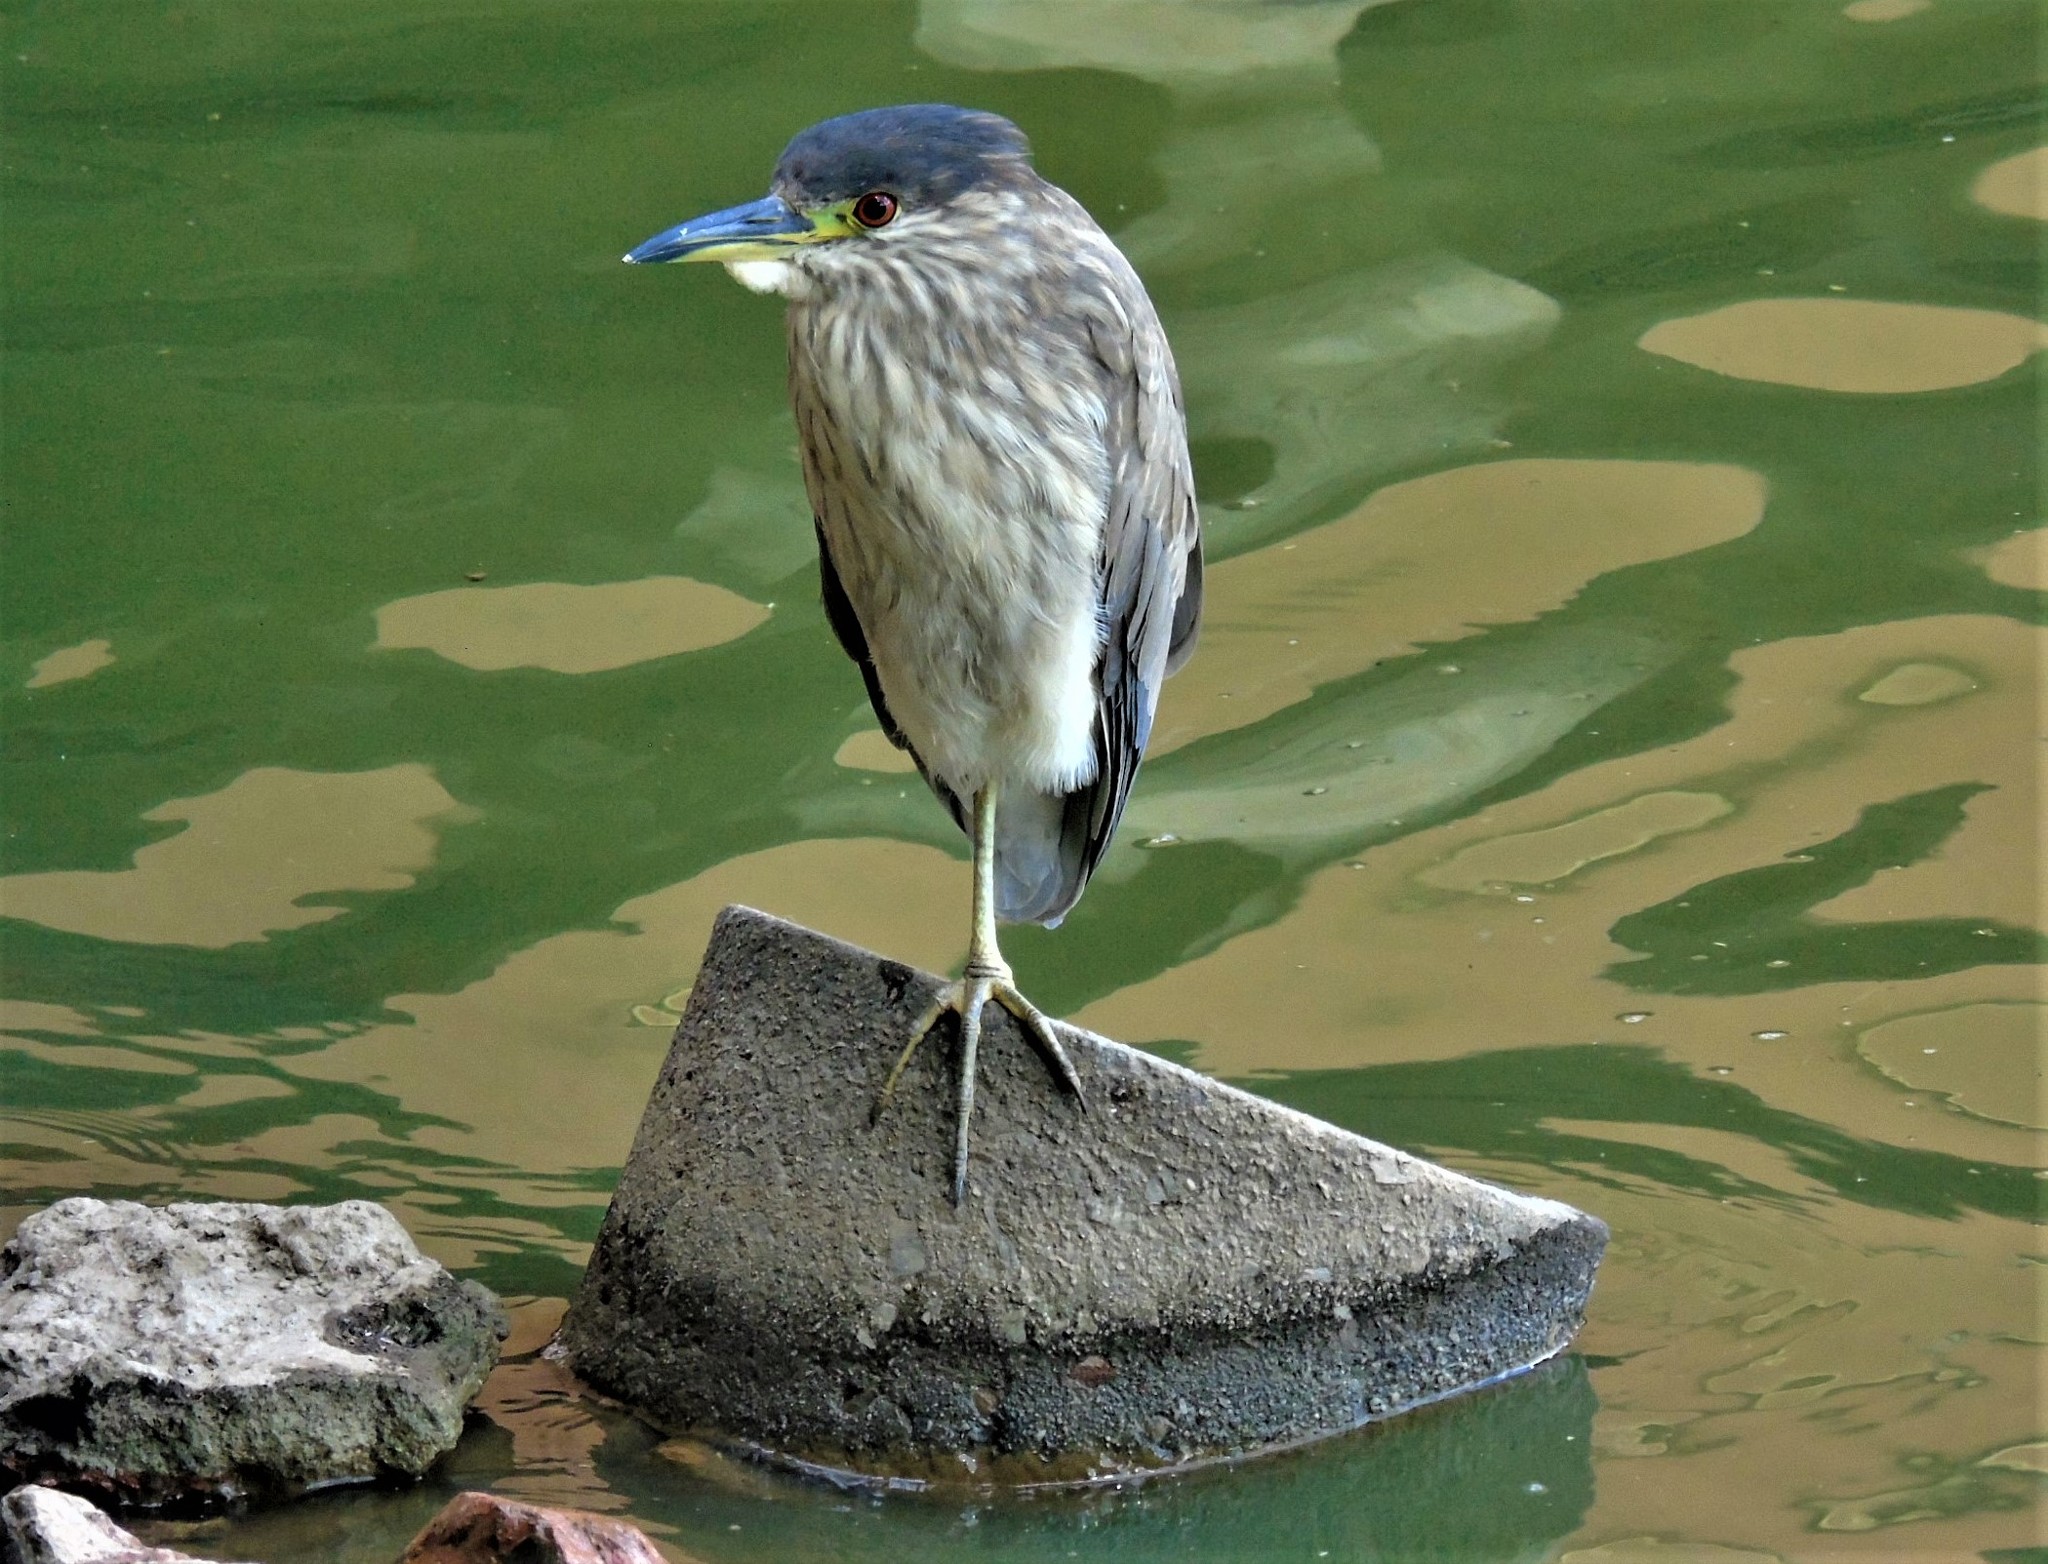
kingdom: Animalia
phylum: Chordata
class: Aves
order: Pelecaniformes
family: Ardeidae
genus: Nycticorax
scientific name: Nycticorax nycticorax
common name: Black-crowned night heron
